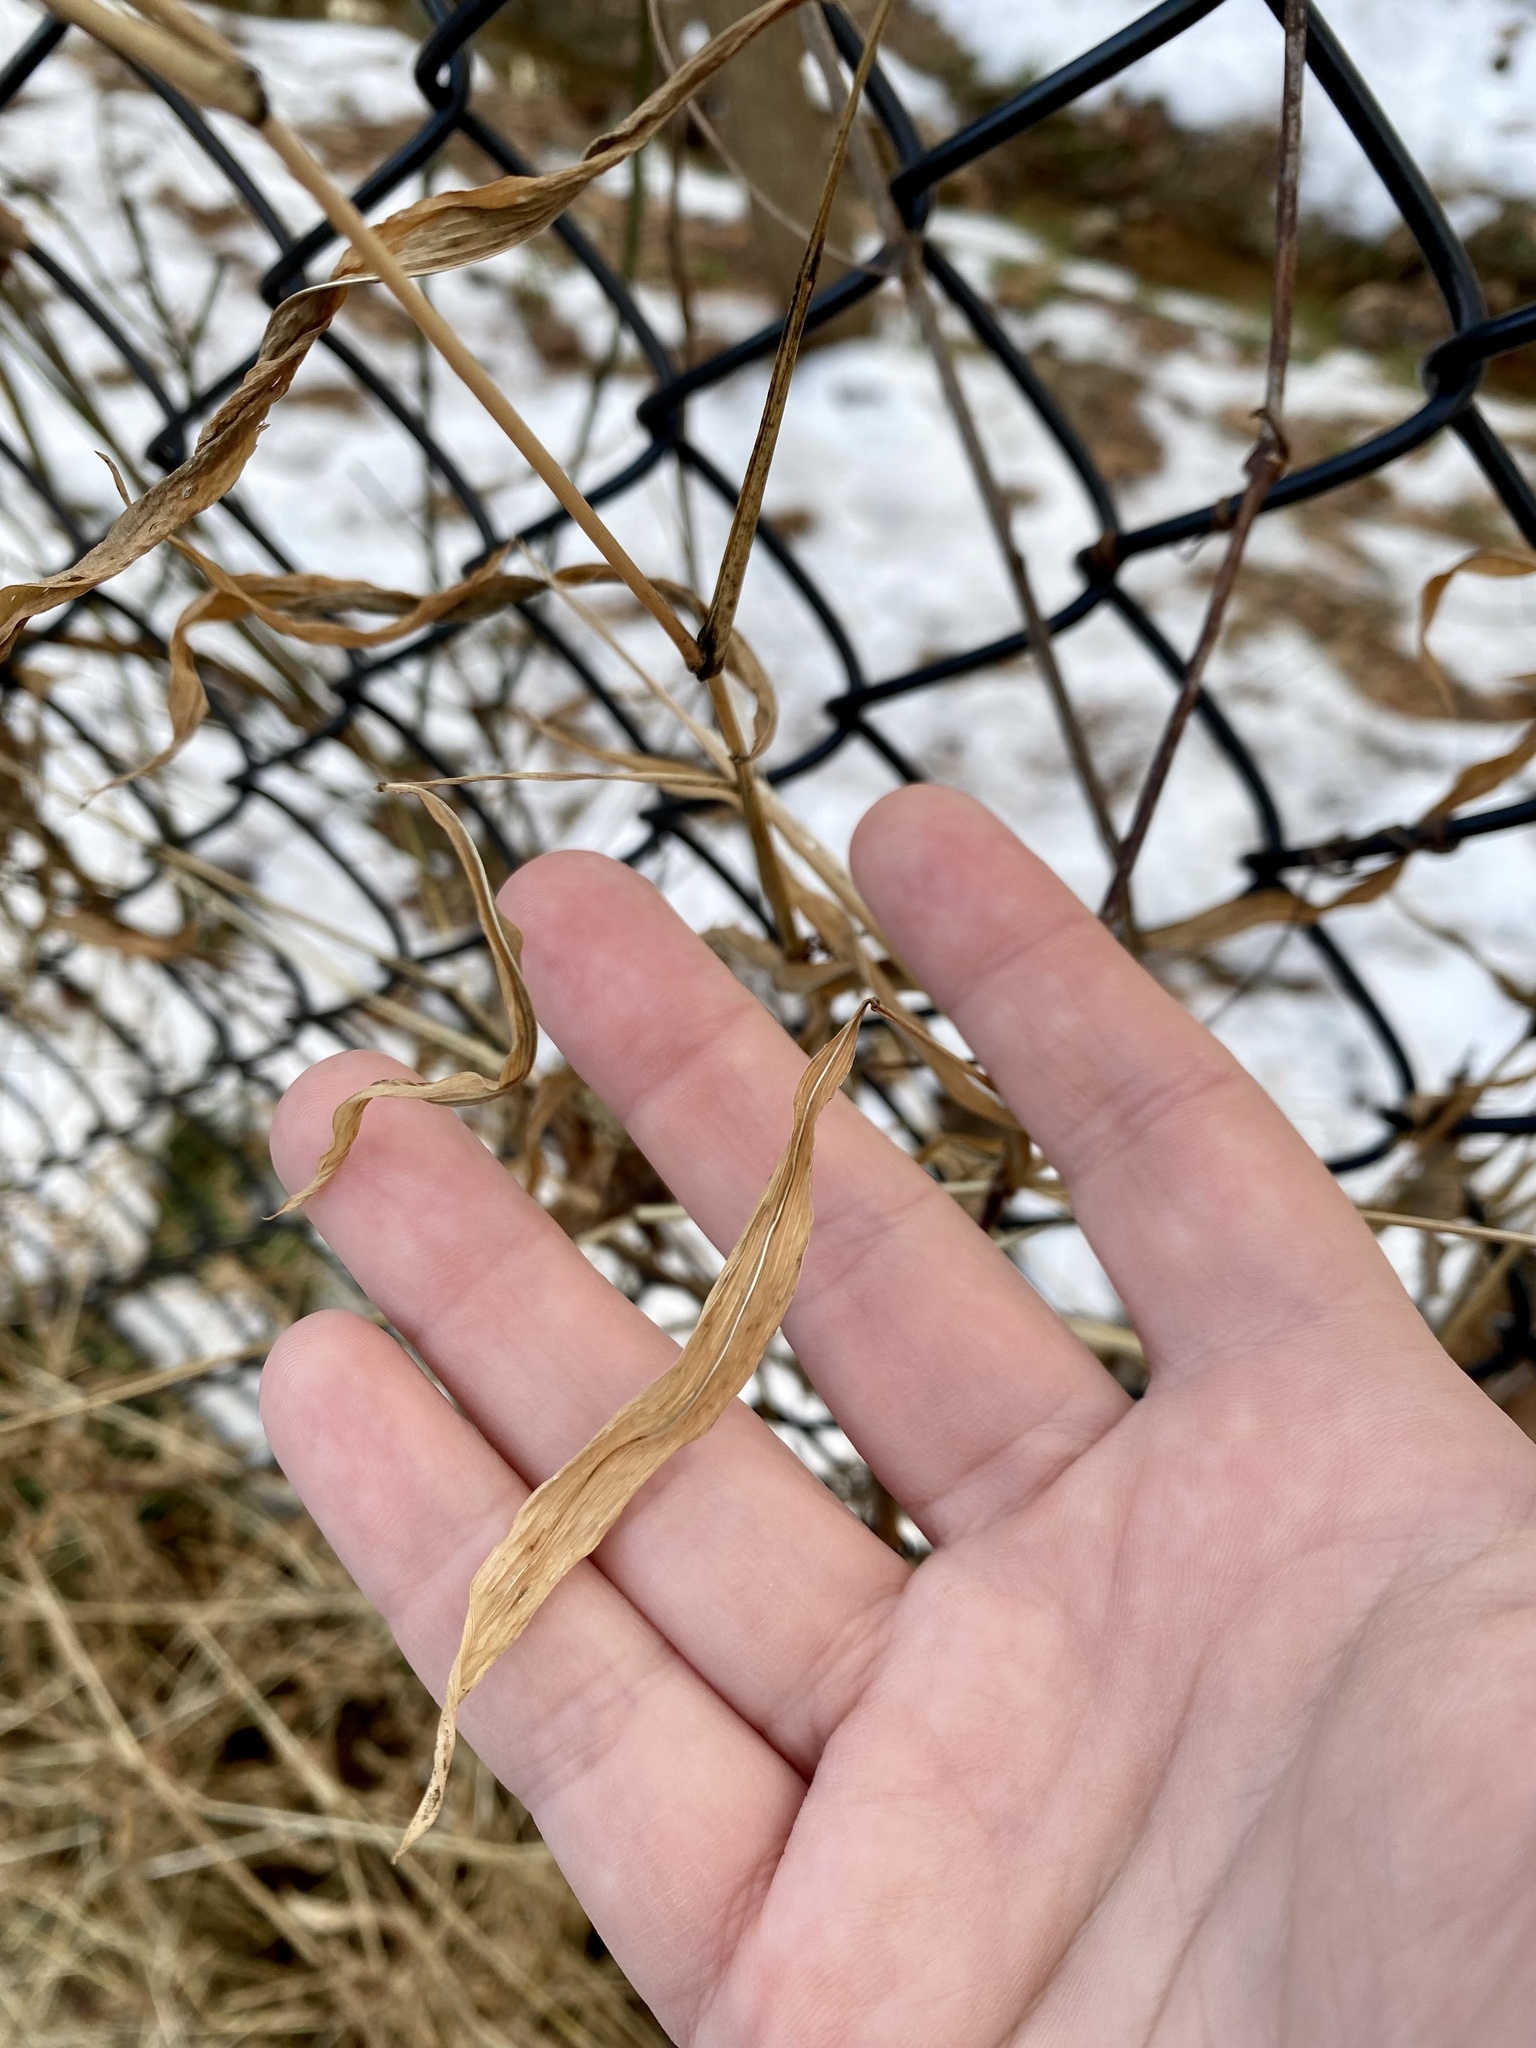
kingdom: Plantae
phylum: Tracheophyta
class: Liliopsida
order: Poales
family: Poaceae
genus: Microstegium
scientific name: Microstegium vimineum
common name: Japanese stiltgrass
